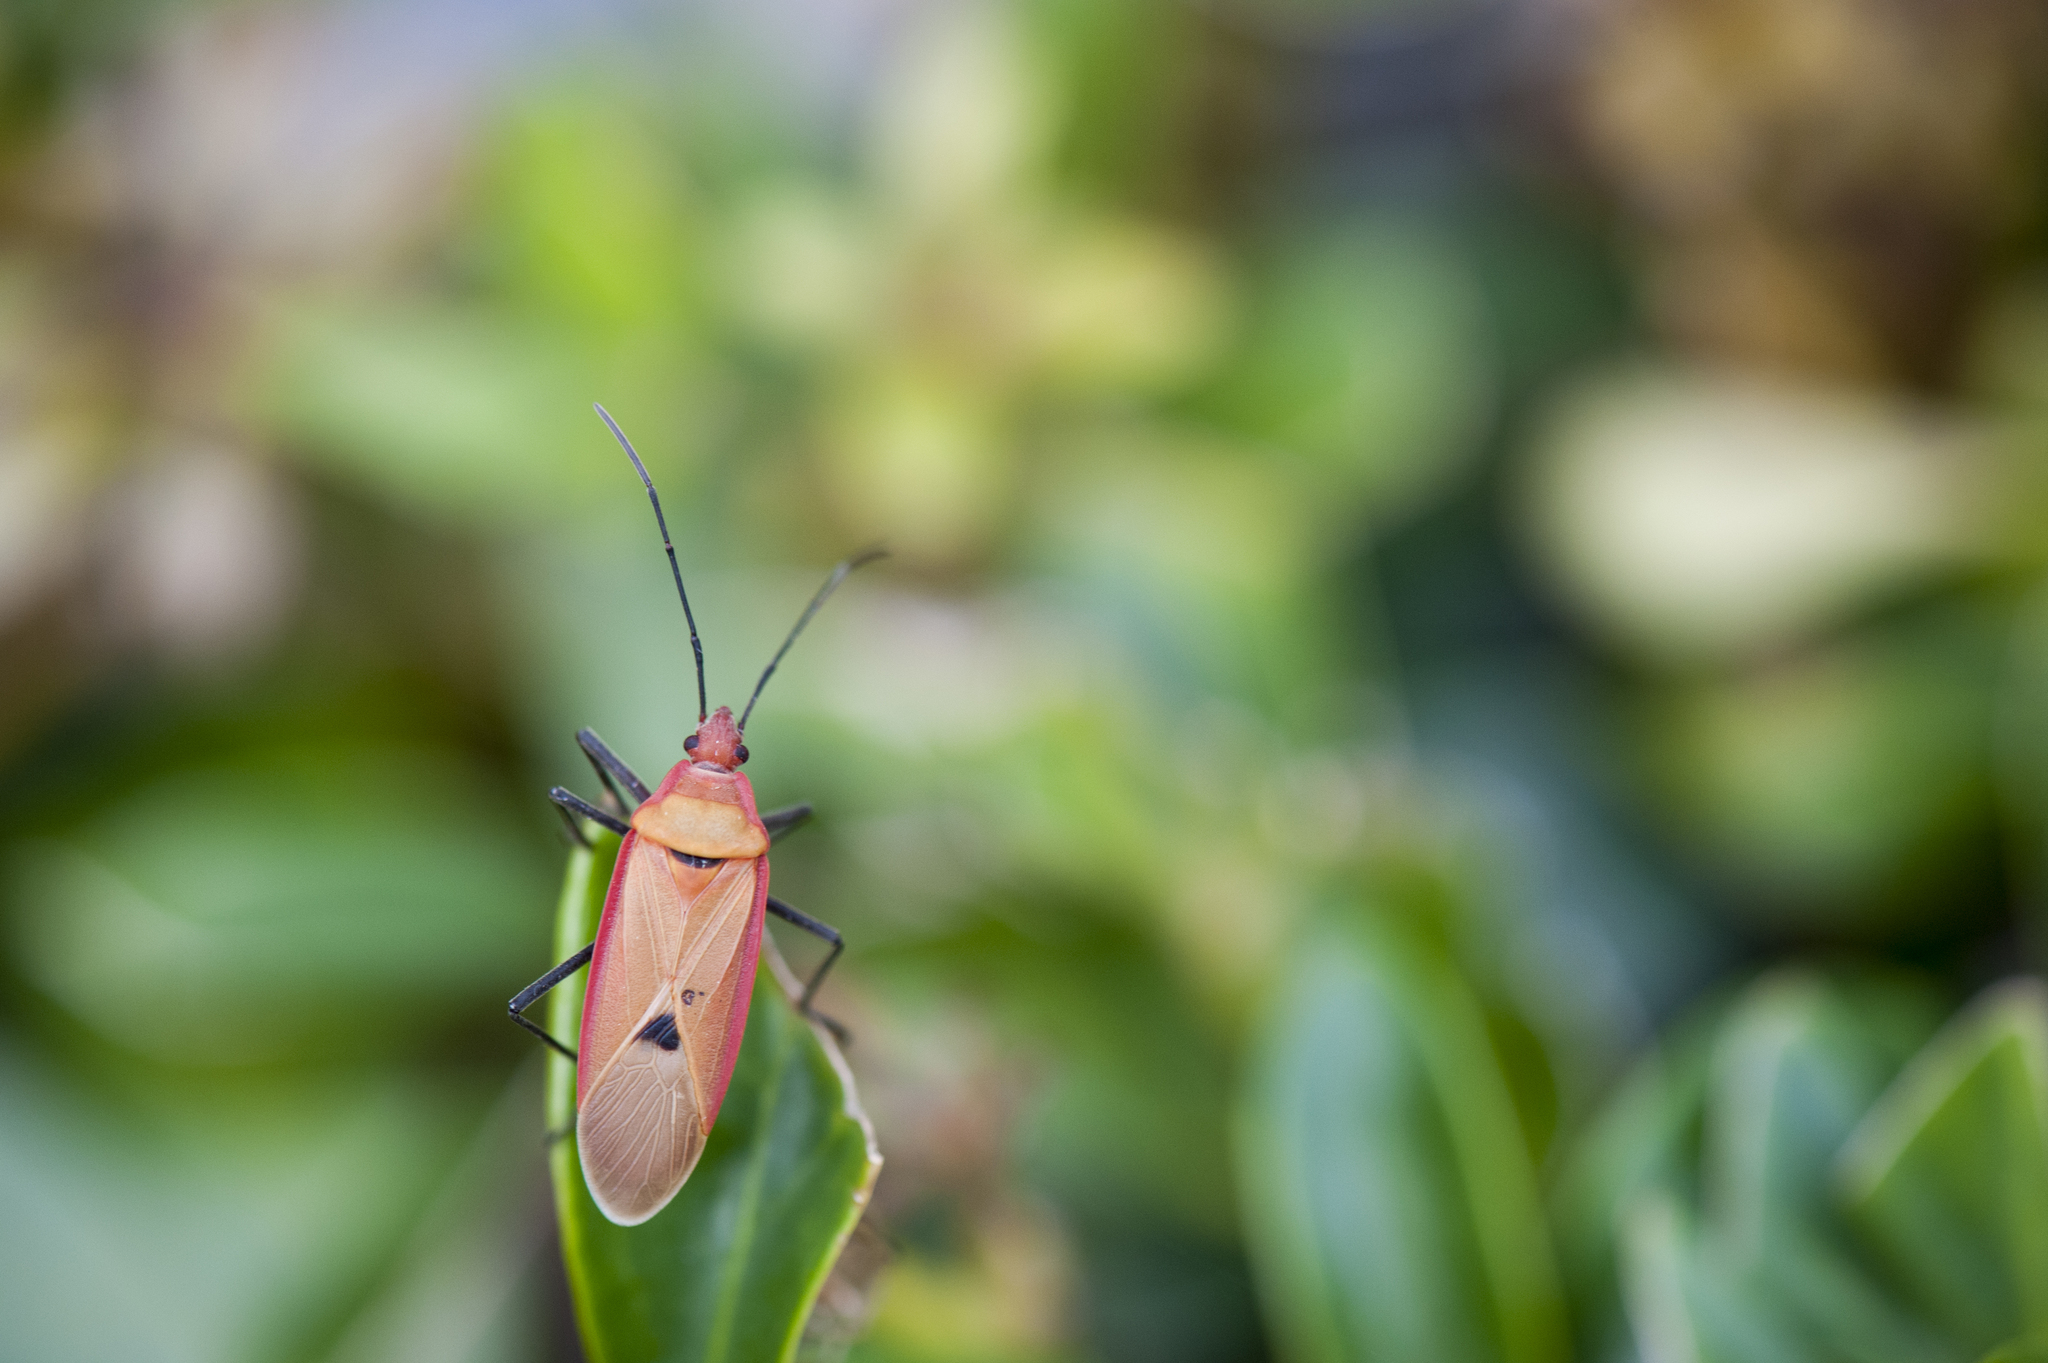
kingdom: Animalia
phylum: Arthropoda
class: Insecta
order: Hemiptera
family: Pyrrhocoridae
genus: Dysdercus
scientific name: Dysdercus fuscomaculatus
